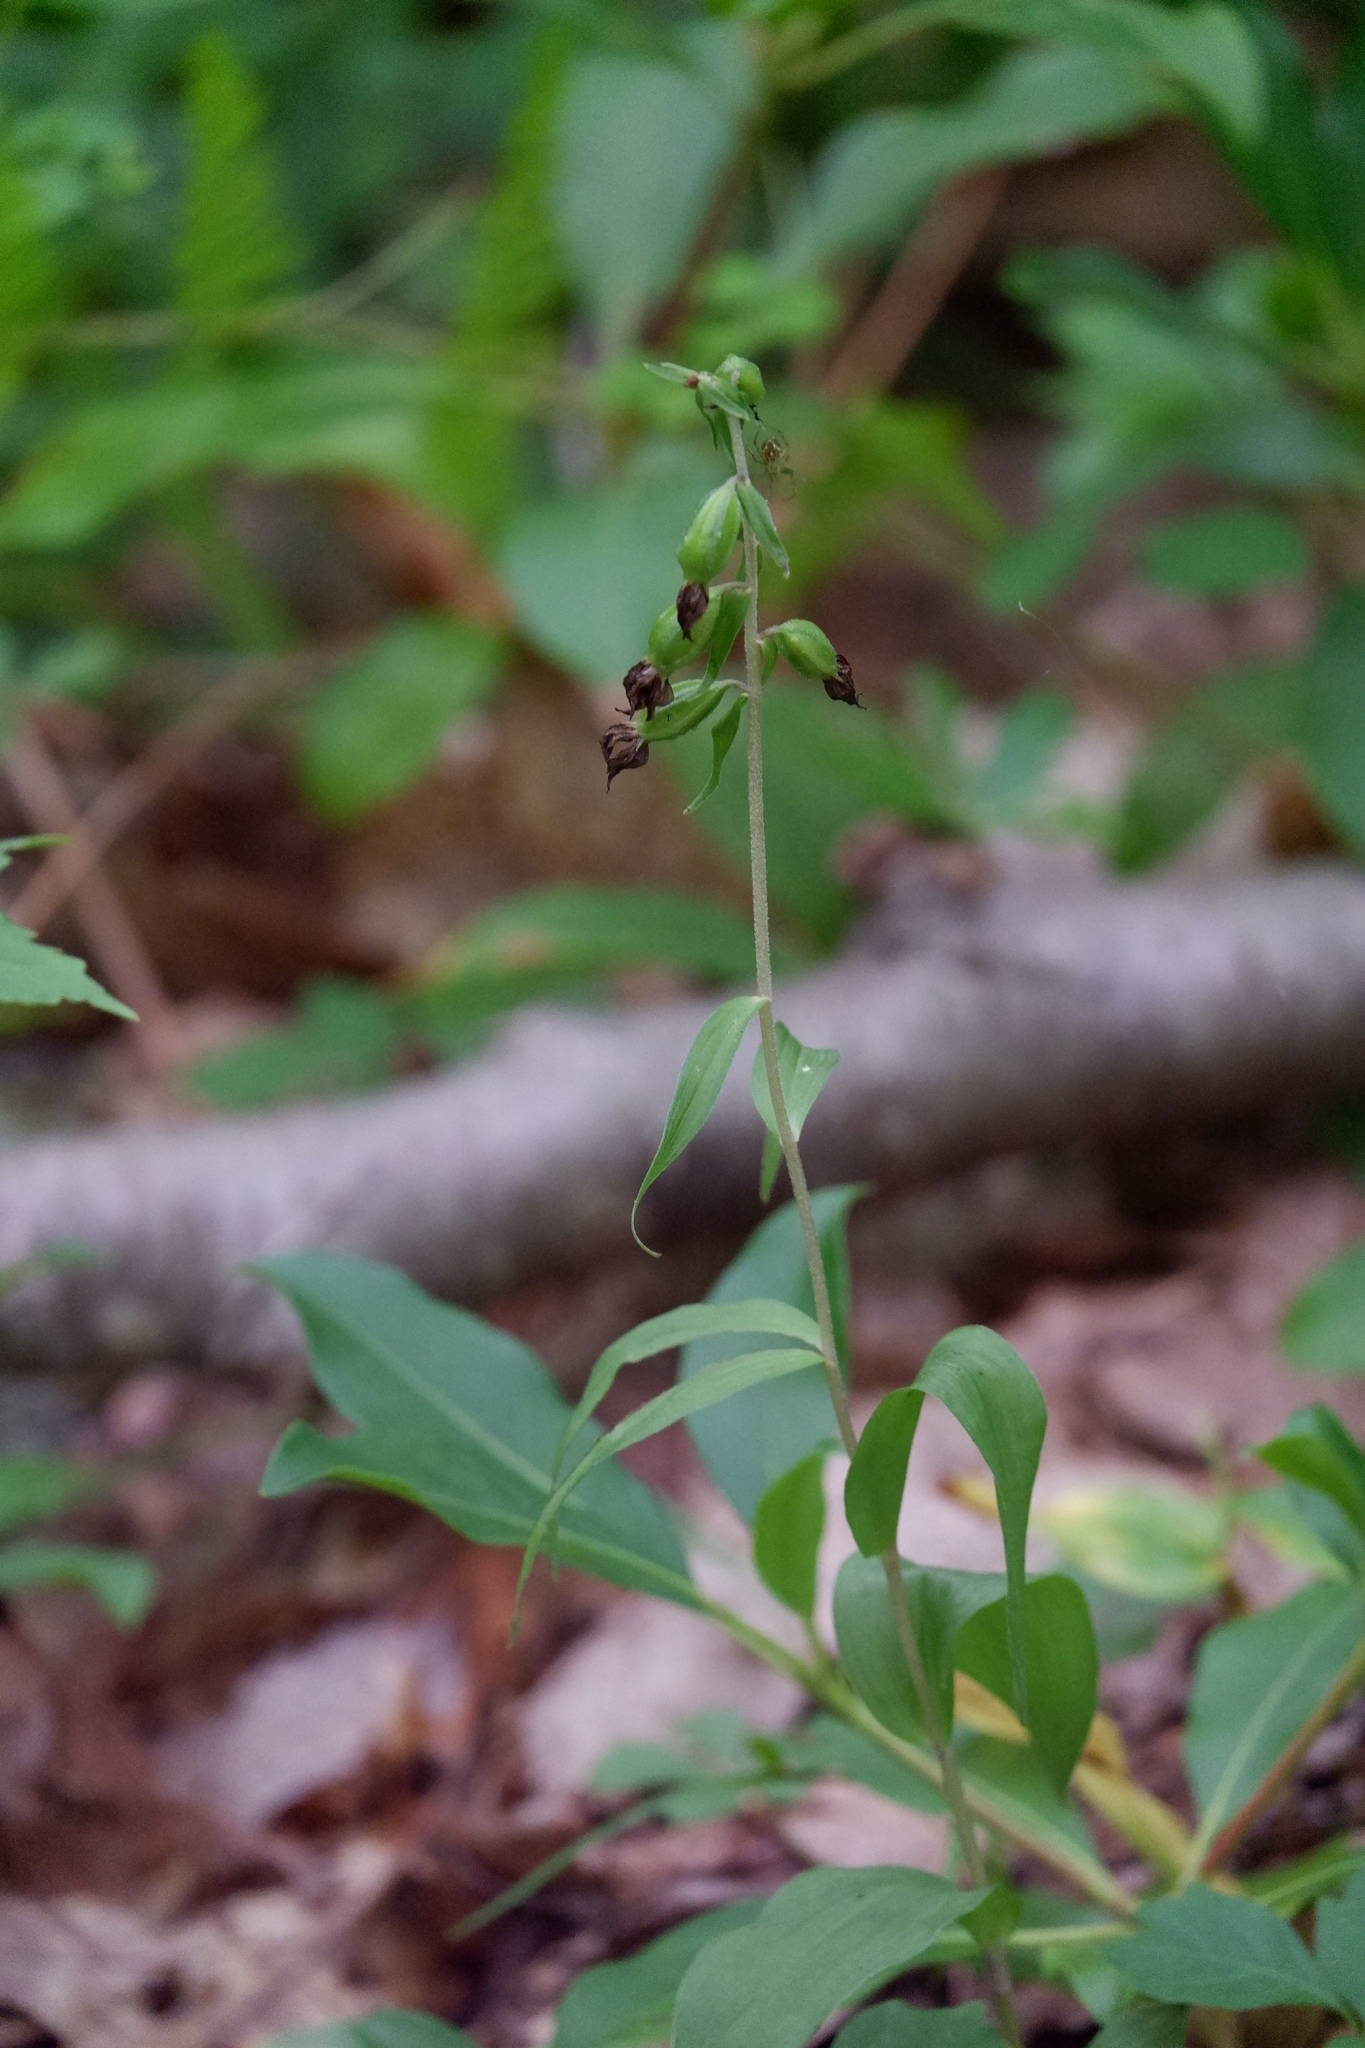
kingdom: Plantae
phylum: Tracheophyta
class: Liliopsida
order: Asparagales
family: Orchidaceae
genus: Epipactis
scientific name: Epipactis helleborine
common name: Broad-leaved helleborine
